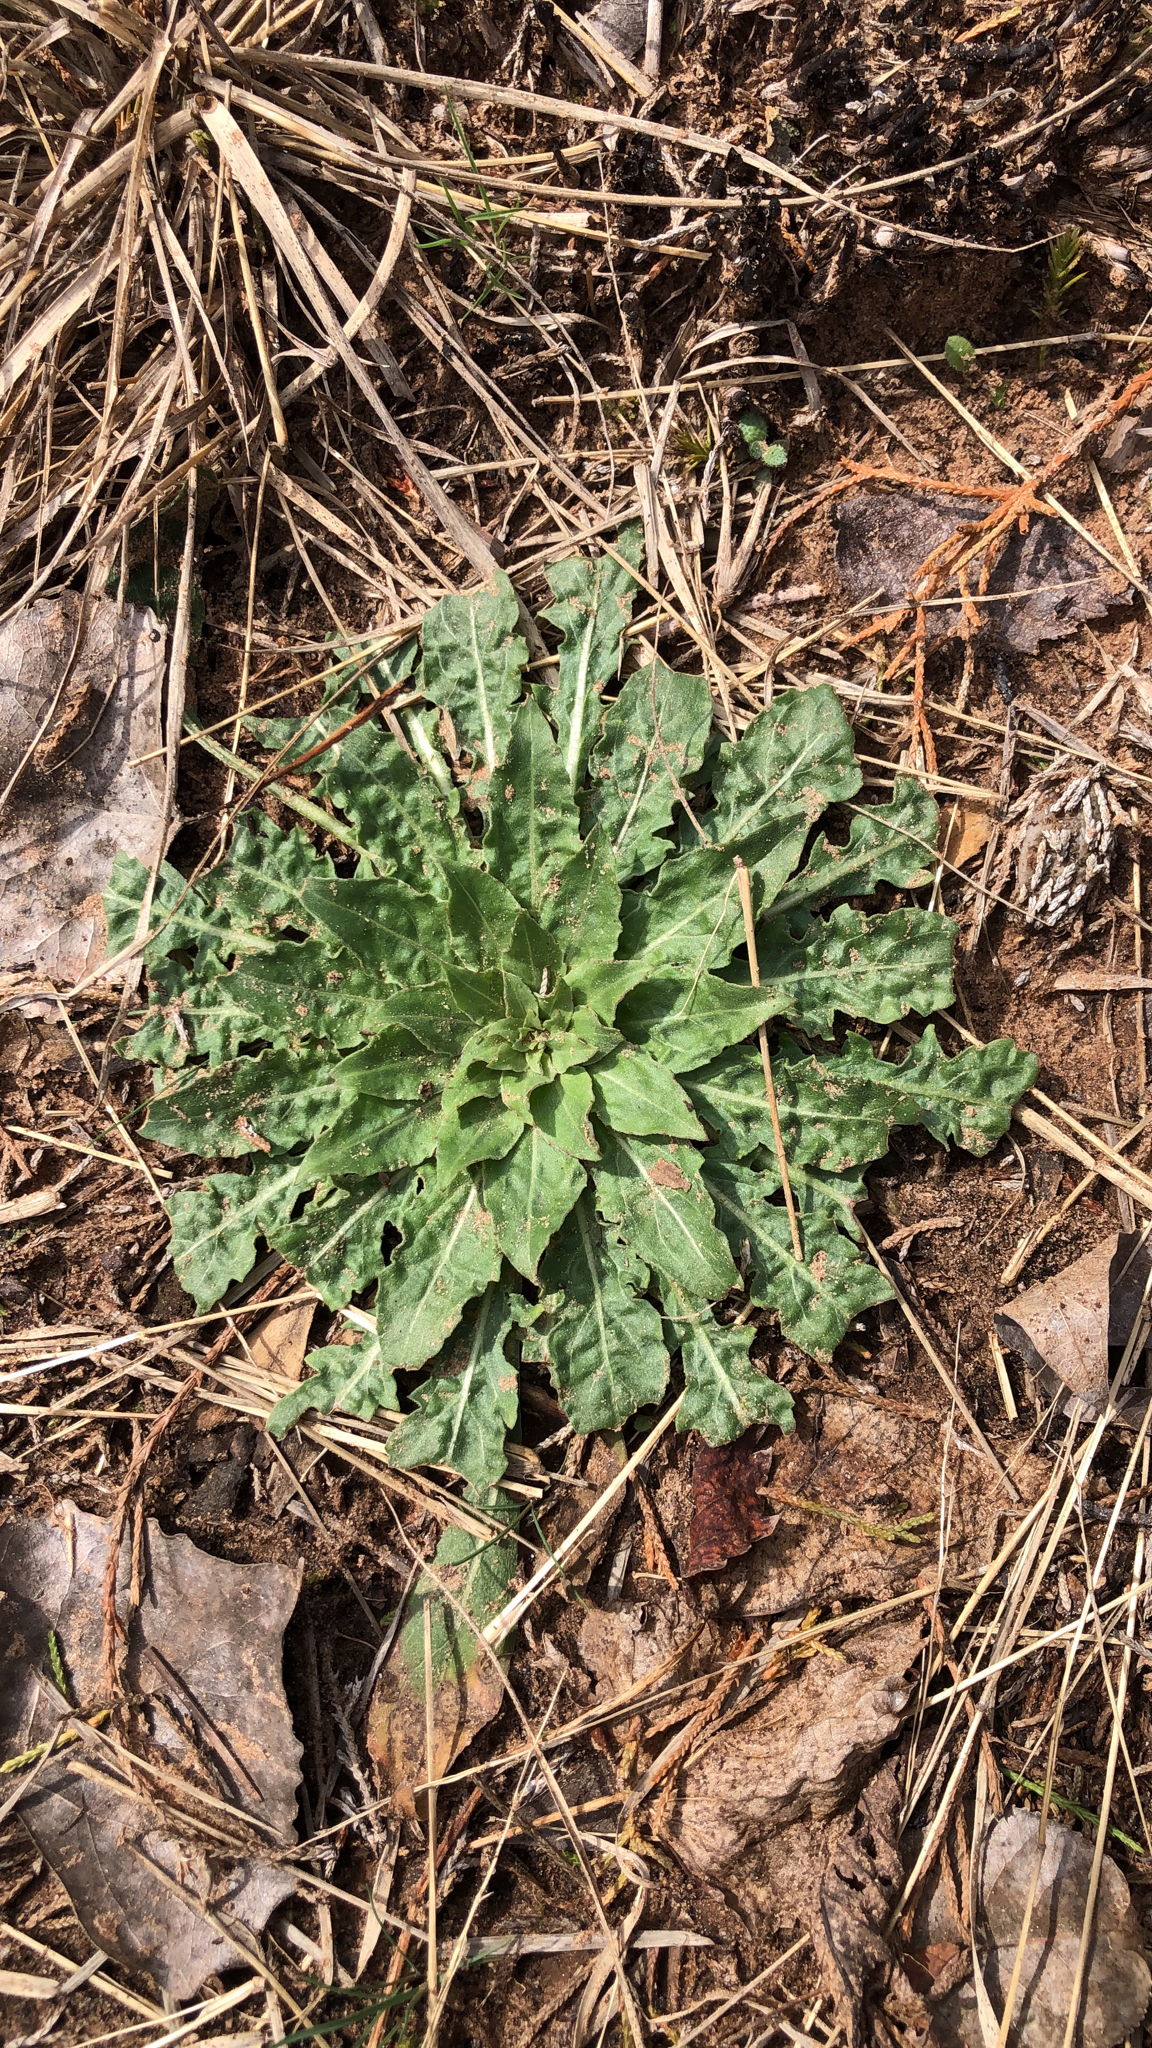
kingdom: Plantae
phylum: Tracheophyta
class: Magnoliopsida
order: Myrtales
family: Onagraceae
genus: Oenothera
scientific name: Oenothera biennis
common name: Common evening-primrose
